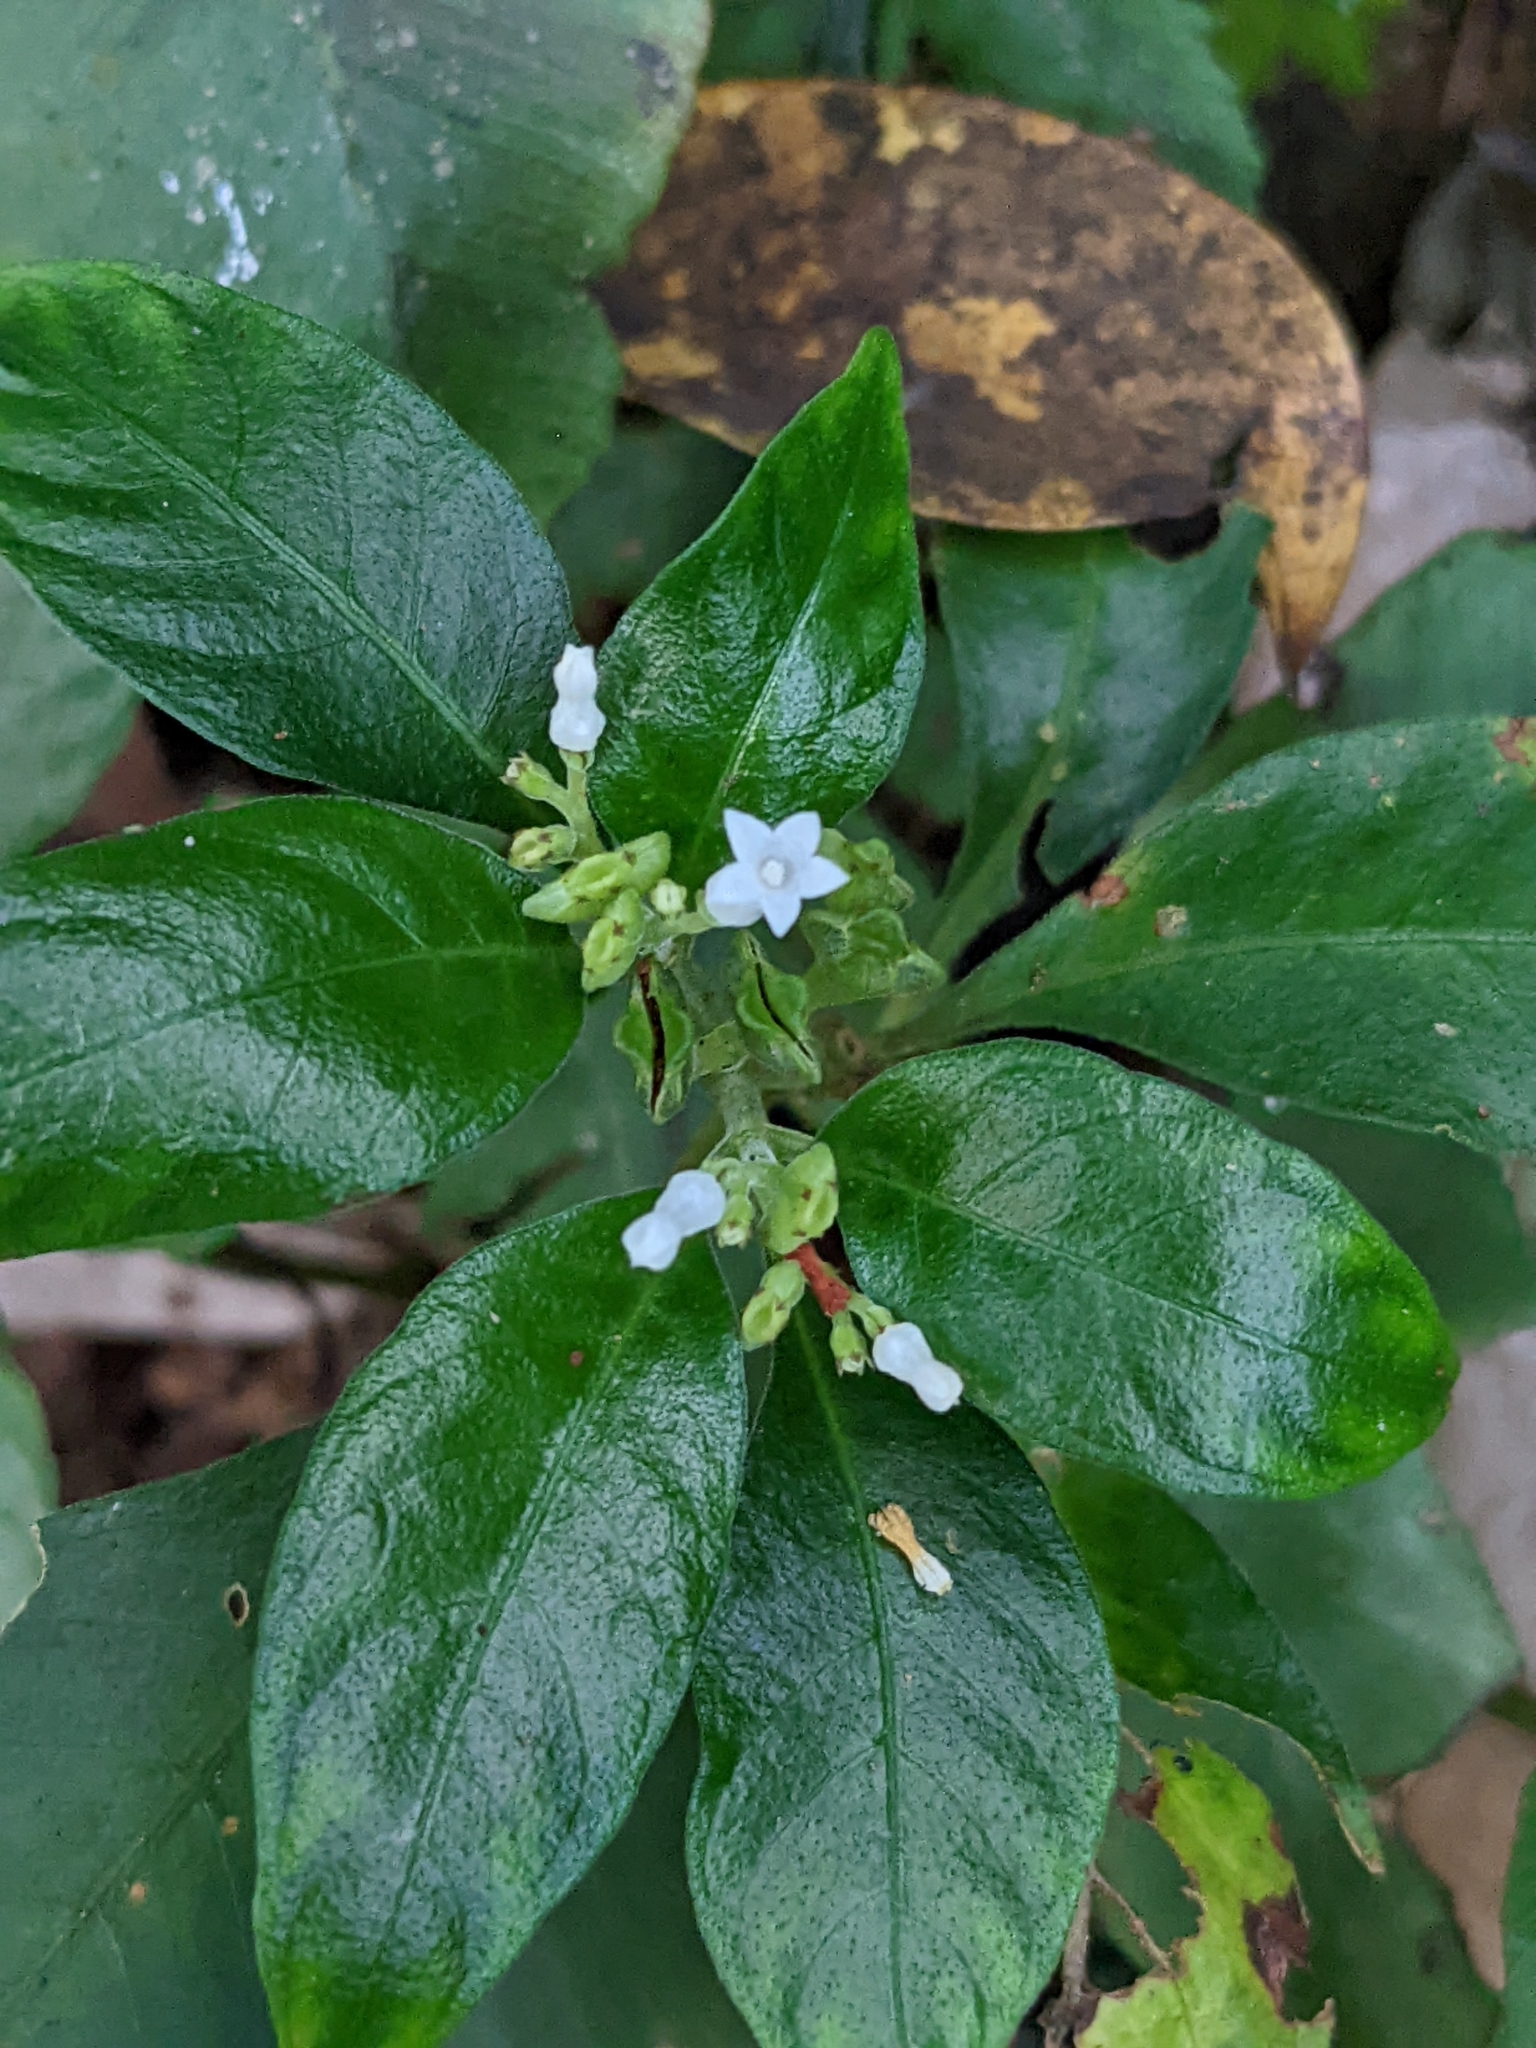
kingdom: Plantae
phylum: Tracheophyta
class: Magnoliopsida
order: Gentianales
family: Rubiaceae
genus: Ophiorrhiza
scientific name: Ophiorrhiza pumila
